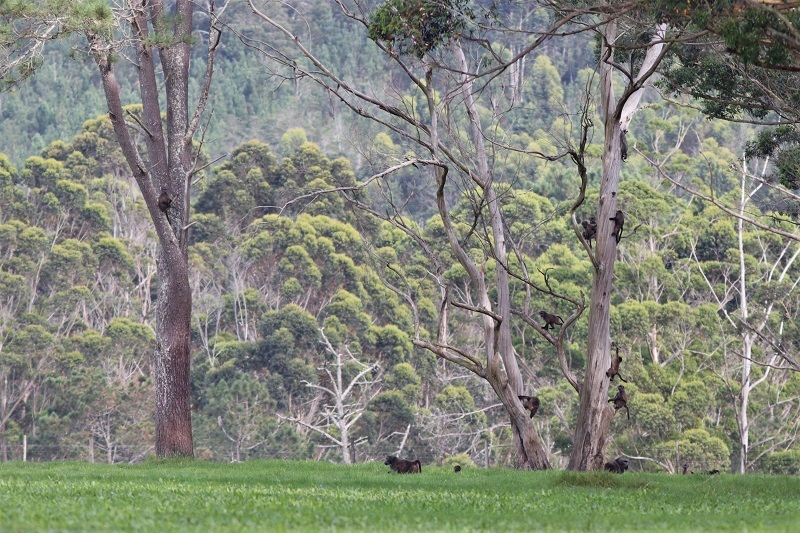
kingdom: Animalia
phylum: Chordata
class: Mammalia
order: Primates
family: Cercopithecidae
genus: Papio
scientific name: Papio ursinus
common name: Chacma baboon
